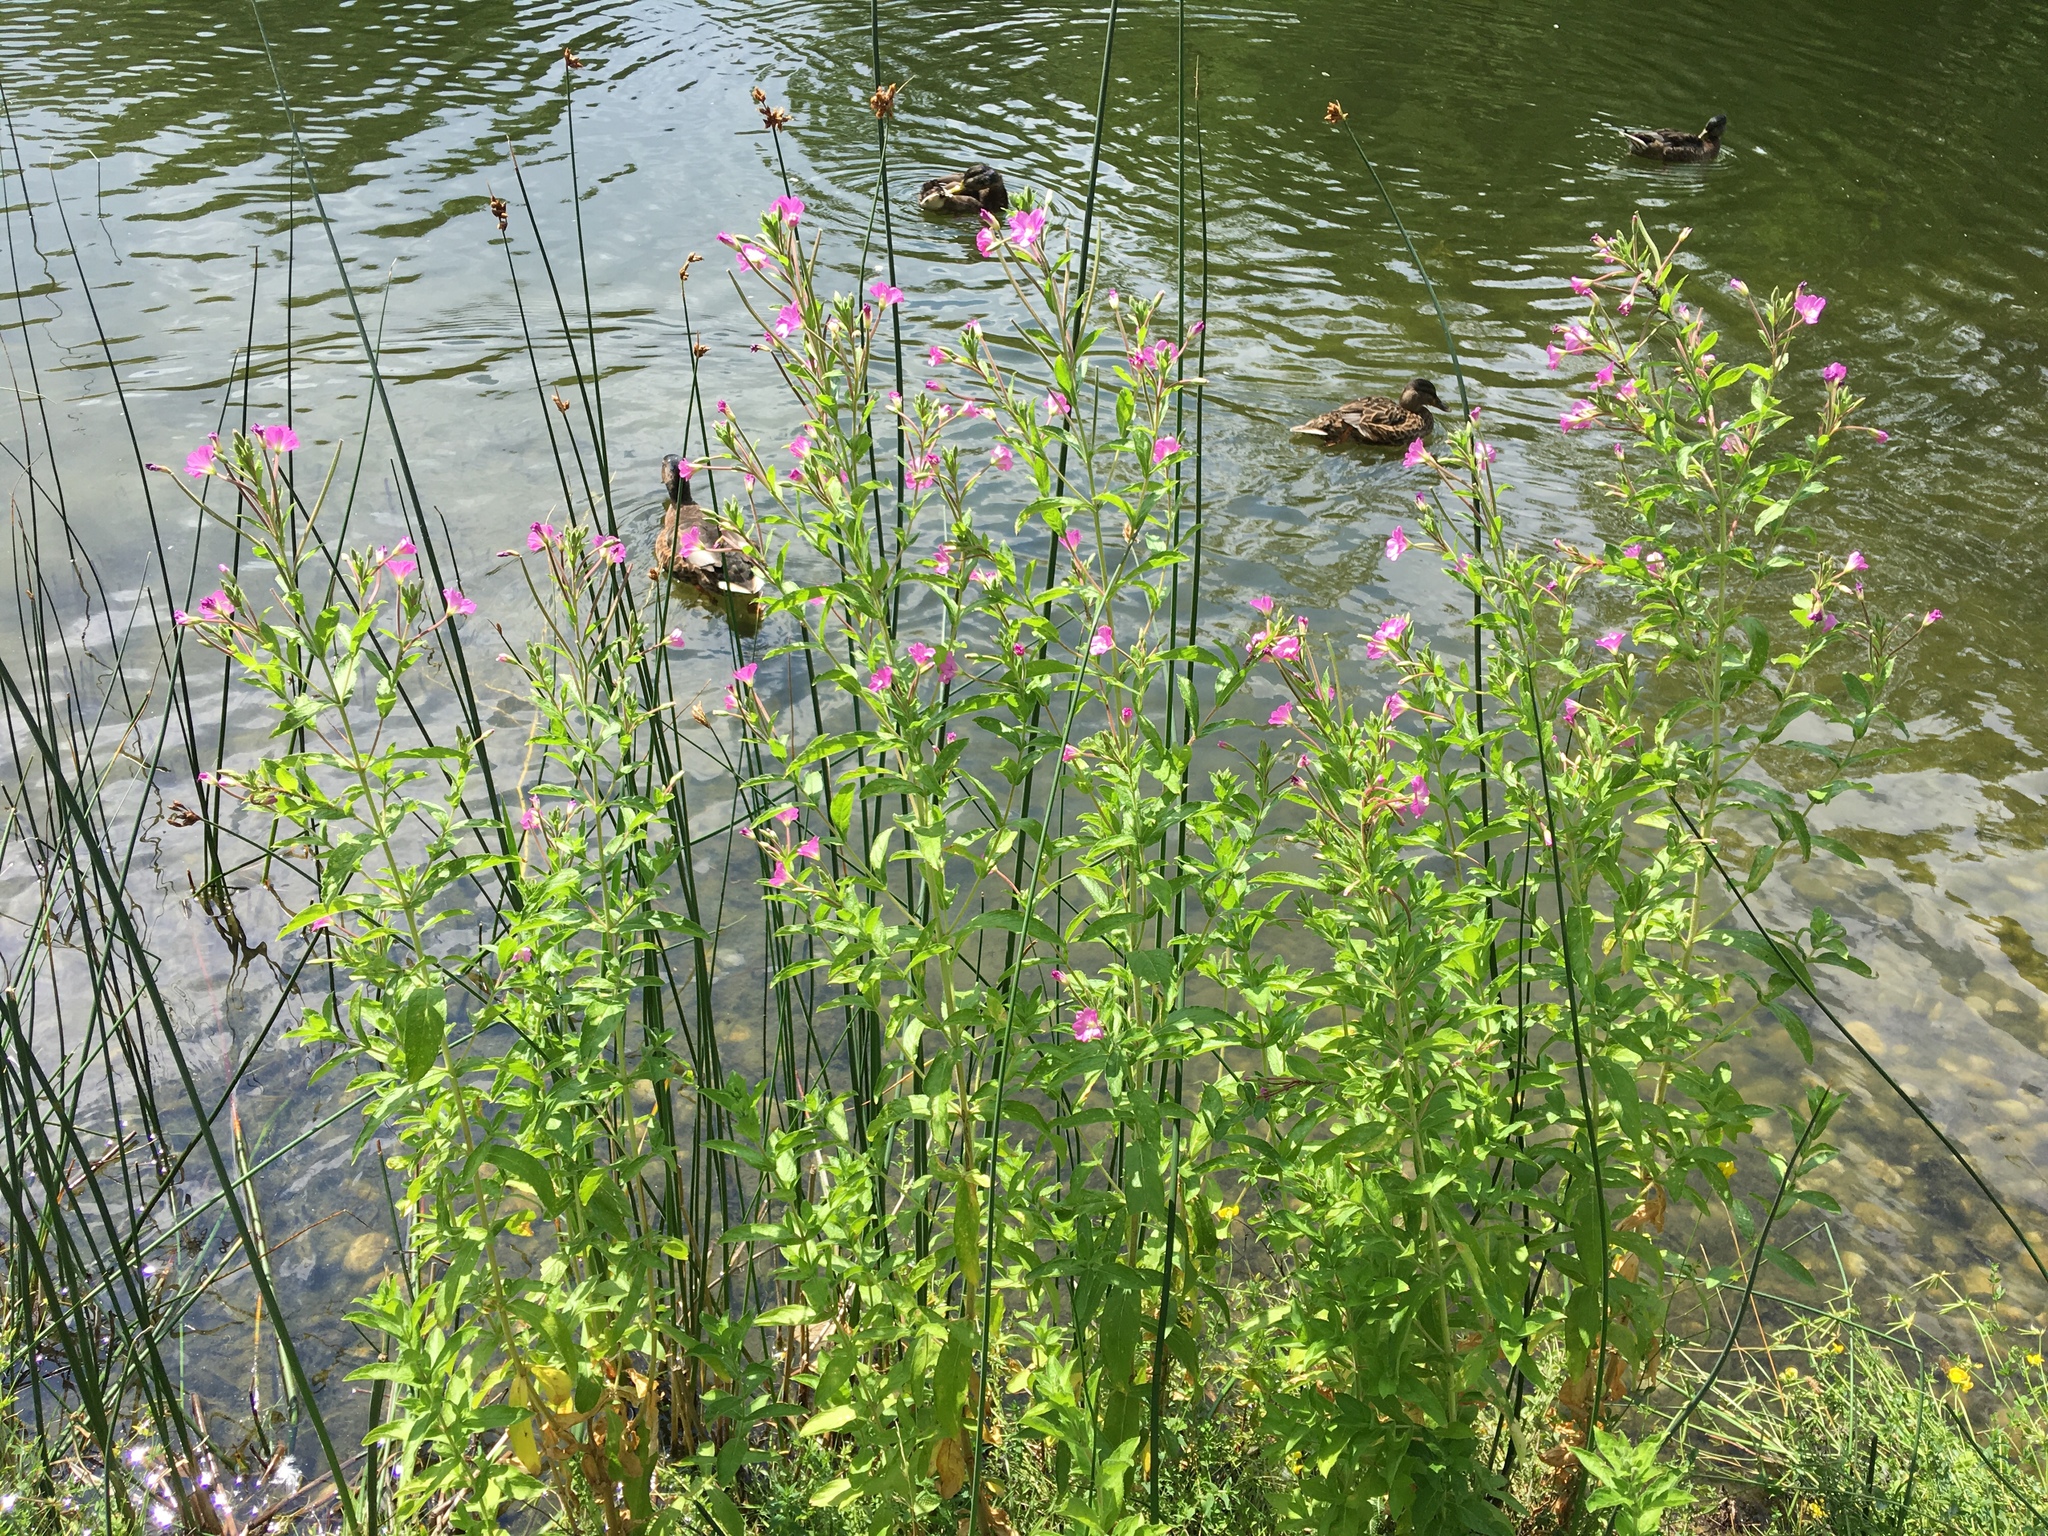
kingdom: Plantae
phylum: Tracheophyta
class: Magnoliopsida
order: Myrtales
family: Onagraceae
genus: Epilobium
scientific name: Epilobium hirsutum
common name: Great willowherb
